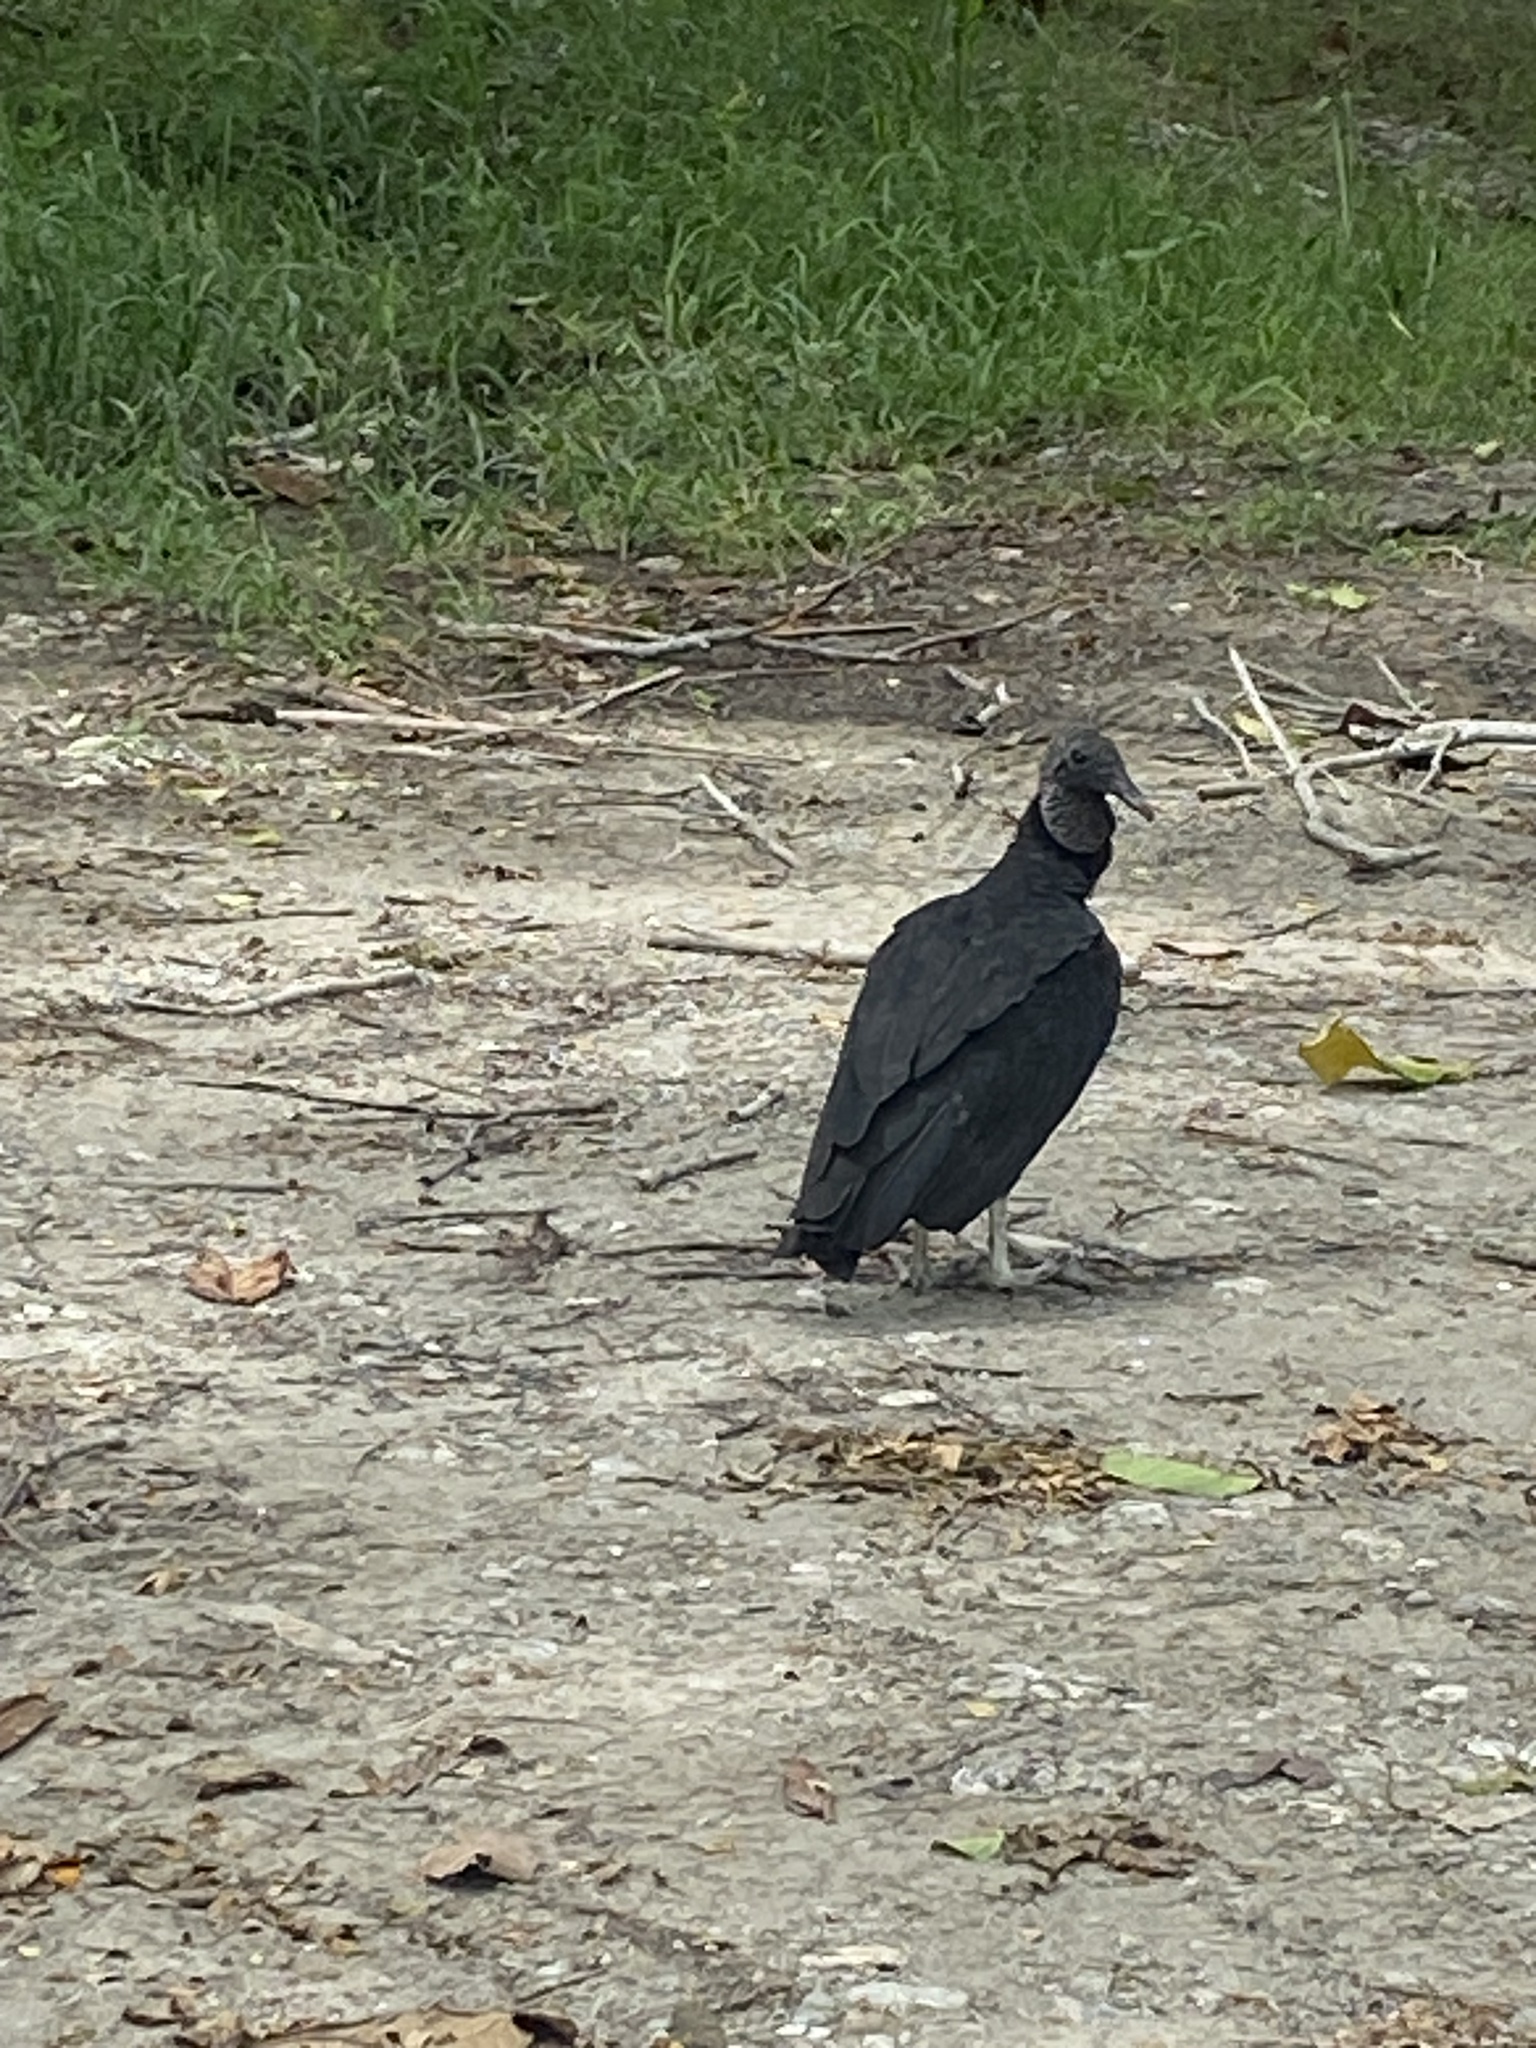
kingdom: Animalia
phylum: Chordata
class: Aves
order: Accipitriformes
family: Cathartidae
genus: Coragyps
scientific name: Coragyps atratus
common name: Black vulture
